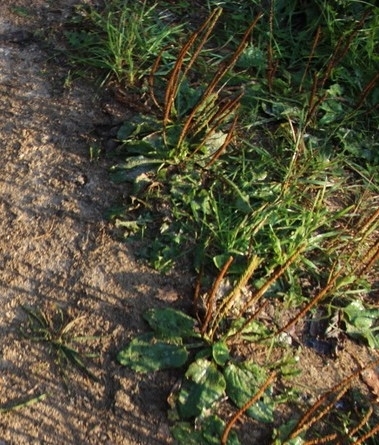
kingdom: Plantae
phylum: Tracheophyta
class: Magnoliopsida
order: Lamiales
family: Plantaginaceae
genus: Plantago
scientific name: Plantago major
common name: Common plantain
